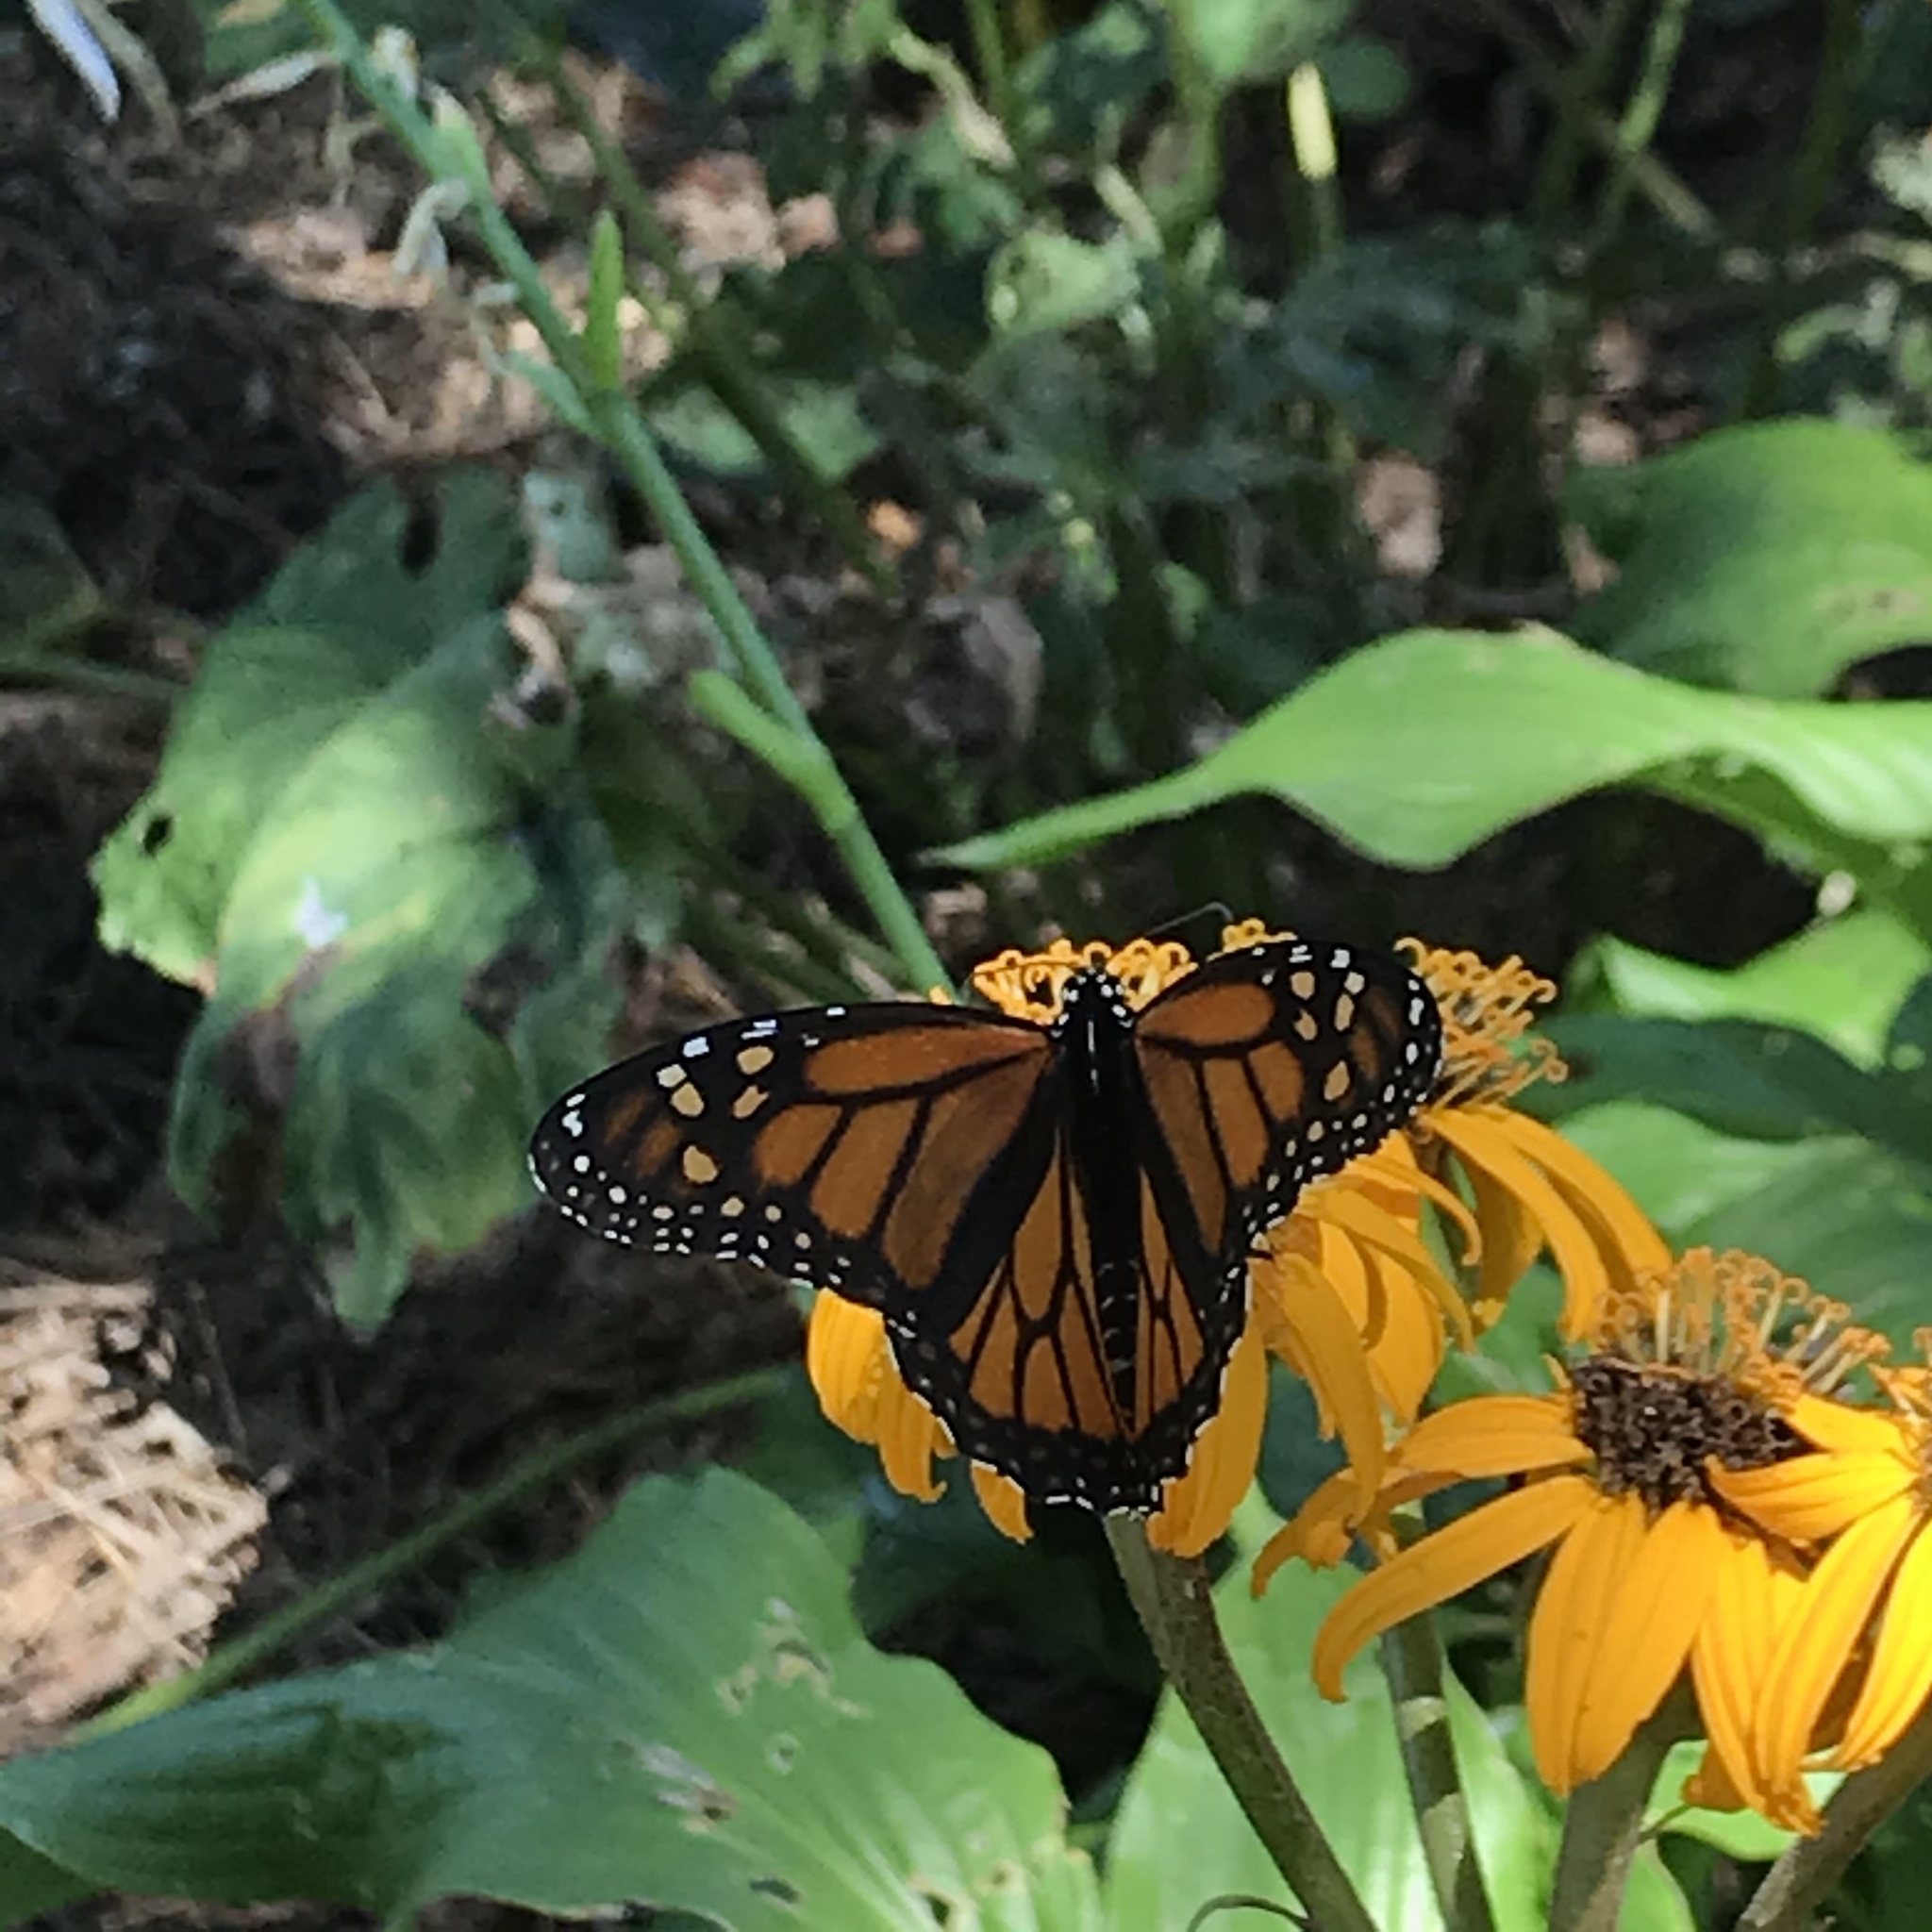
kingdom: Animalia
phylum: Arthropoda
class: Insecta
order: Lepidoptera
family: Nymphalidae
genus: Danaus
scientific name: Danaus plexippus
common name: Monarch
